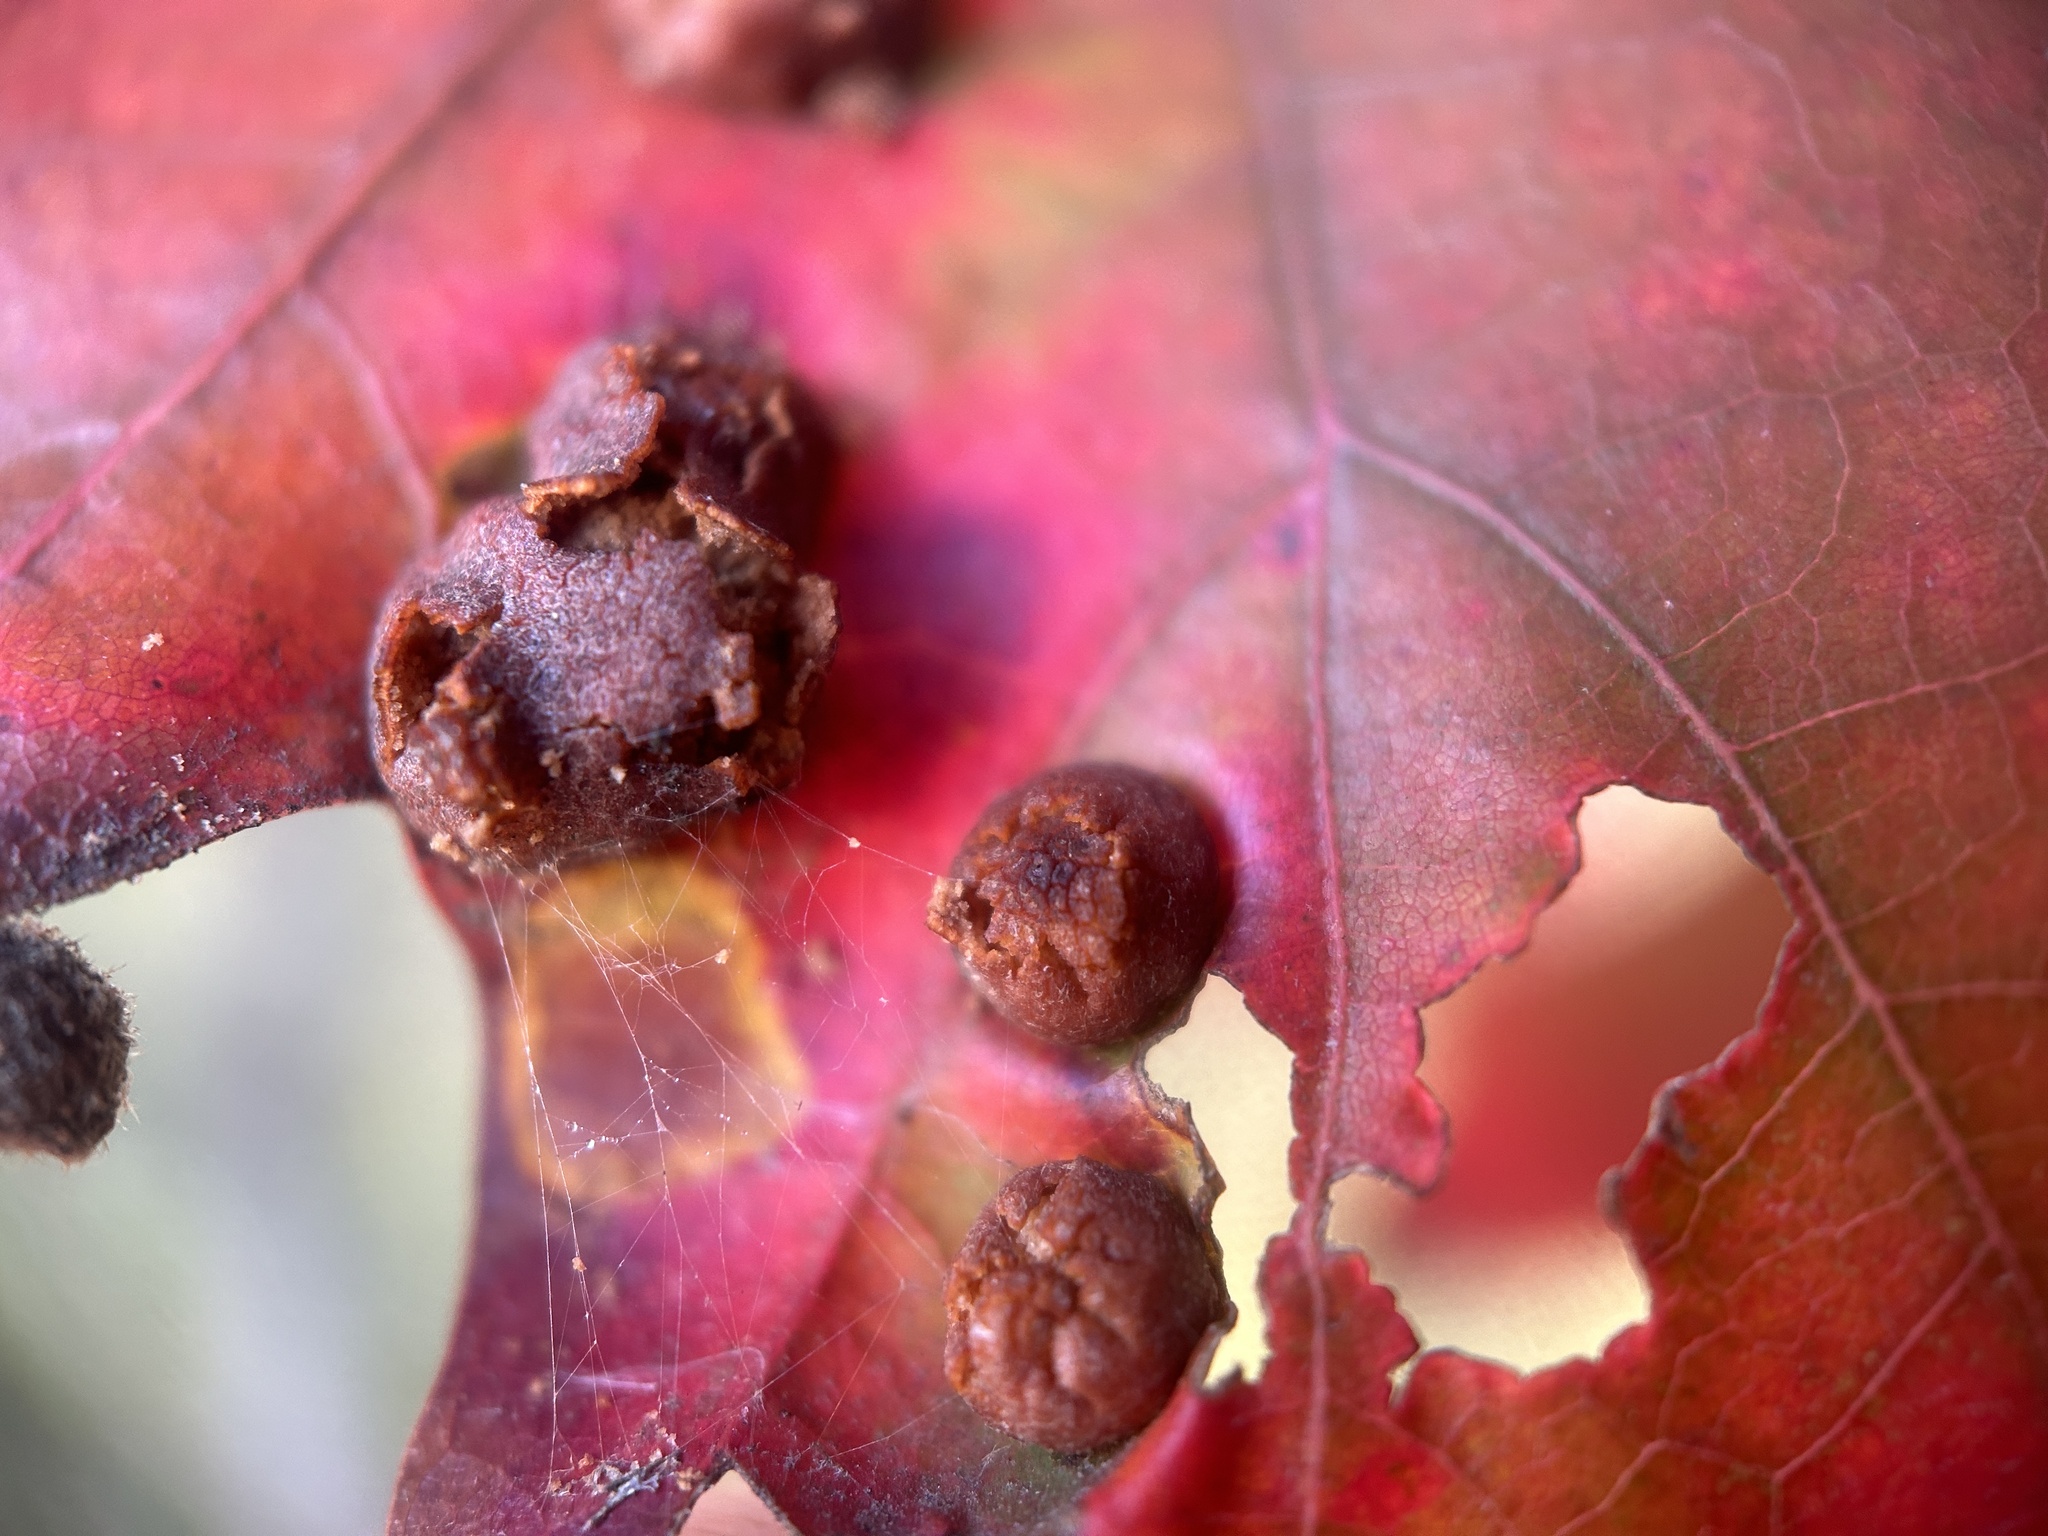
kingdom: Animalia
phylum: Arthropoda
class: Insecta
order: Diptera
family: Cecidomyiidae
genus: Polystepha
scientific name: Polystepha pilulae
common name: Oak leaf gall midge
